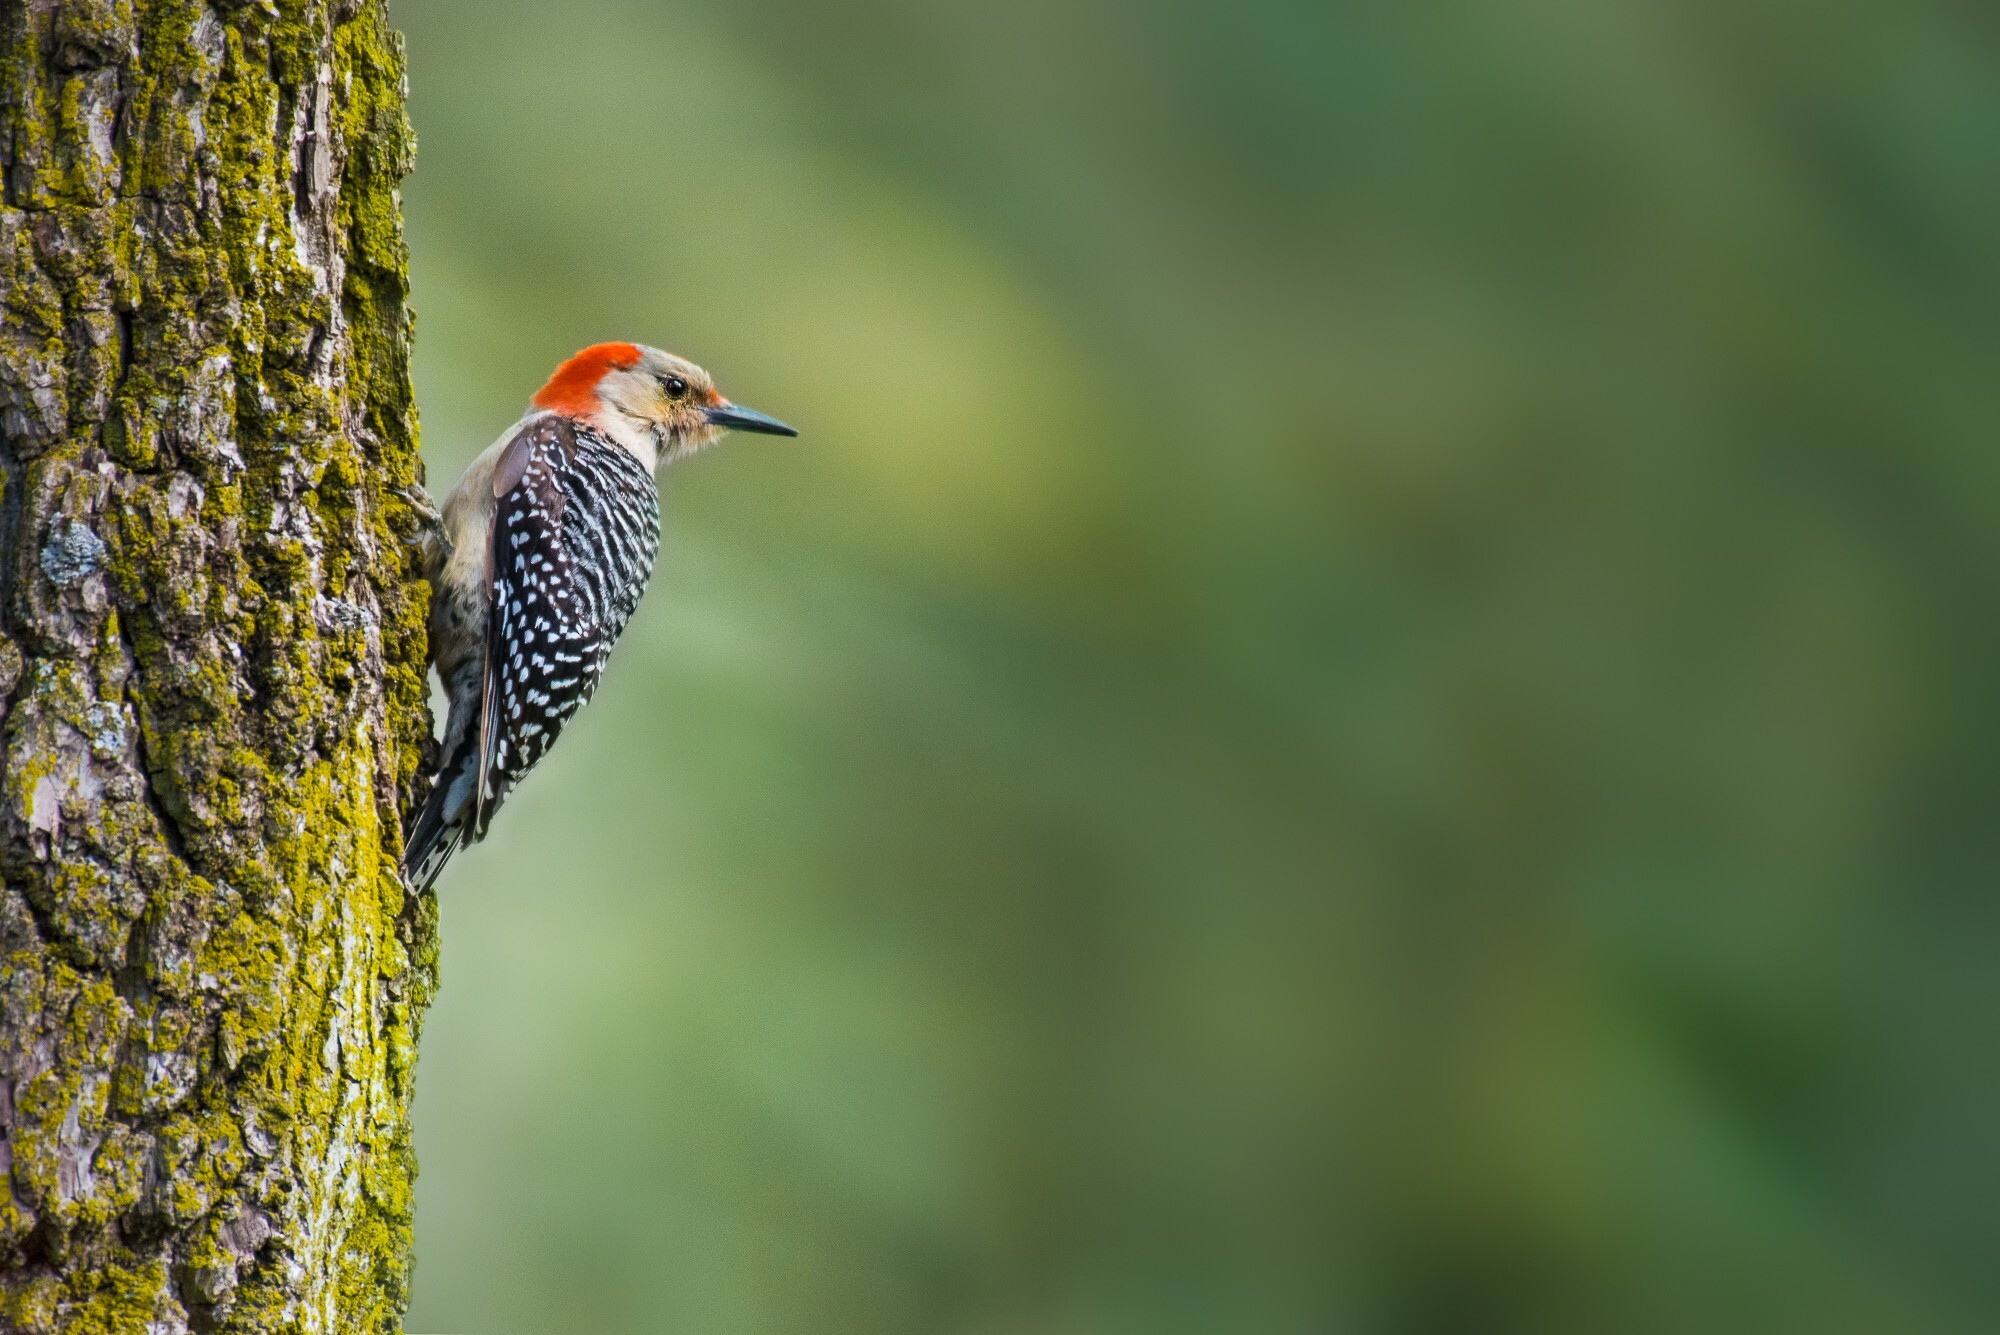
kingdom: Animalia
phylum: Chordata
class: Aves
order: Piciformes
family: Picidae
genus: Melanerpes
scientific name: Melanerpes carolinus
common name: Red-bellied woodpecker
